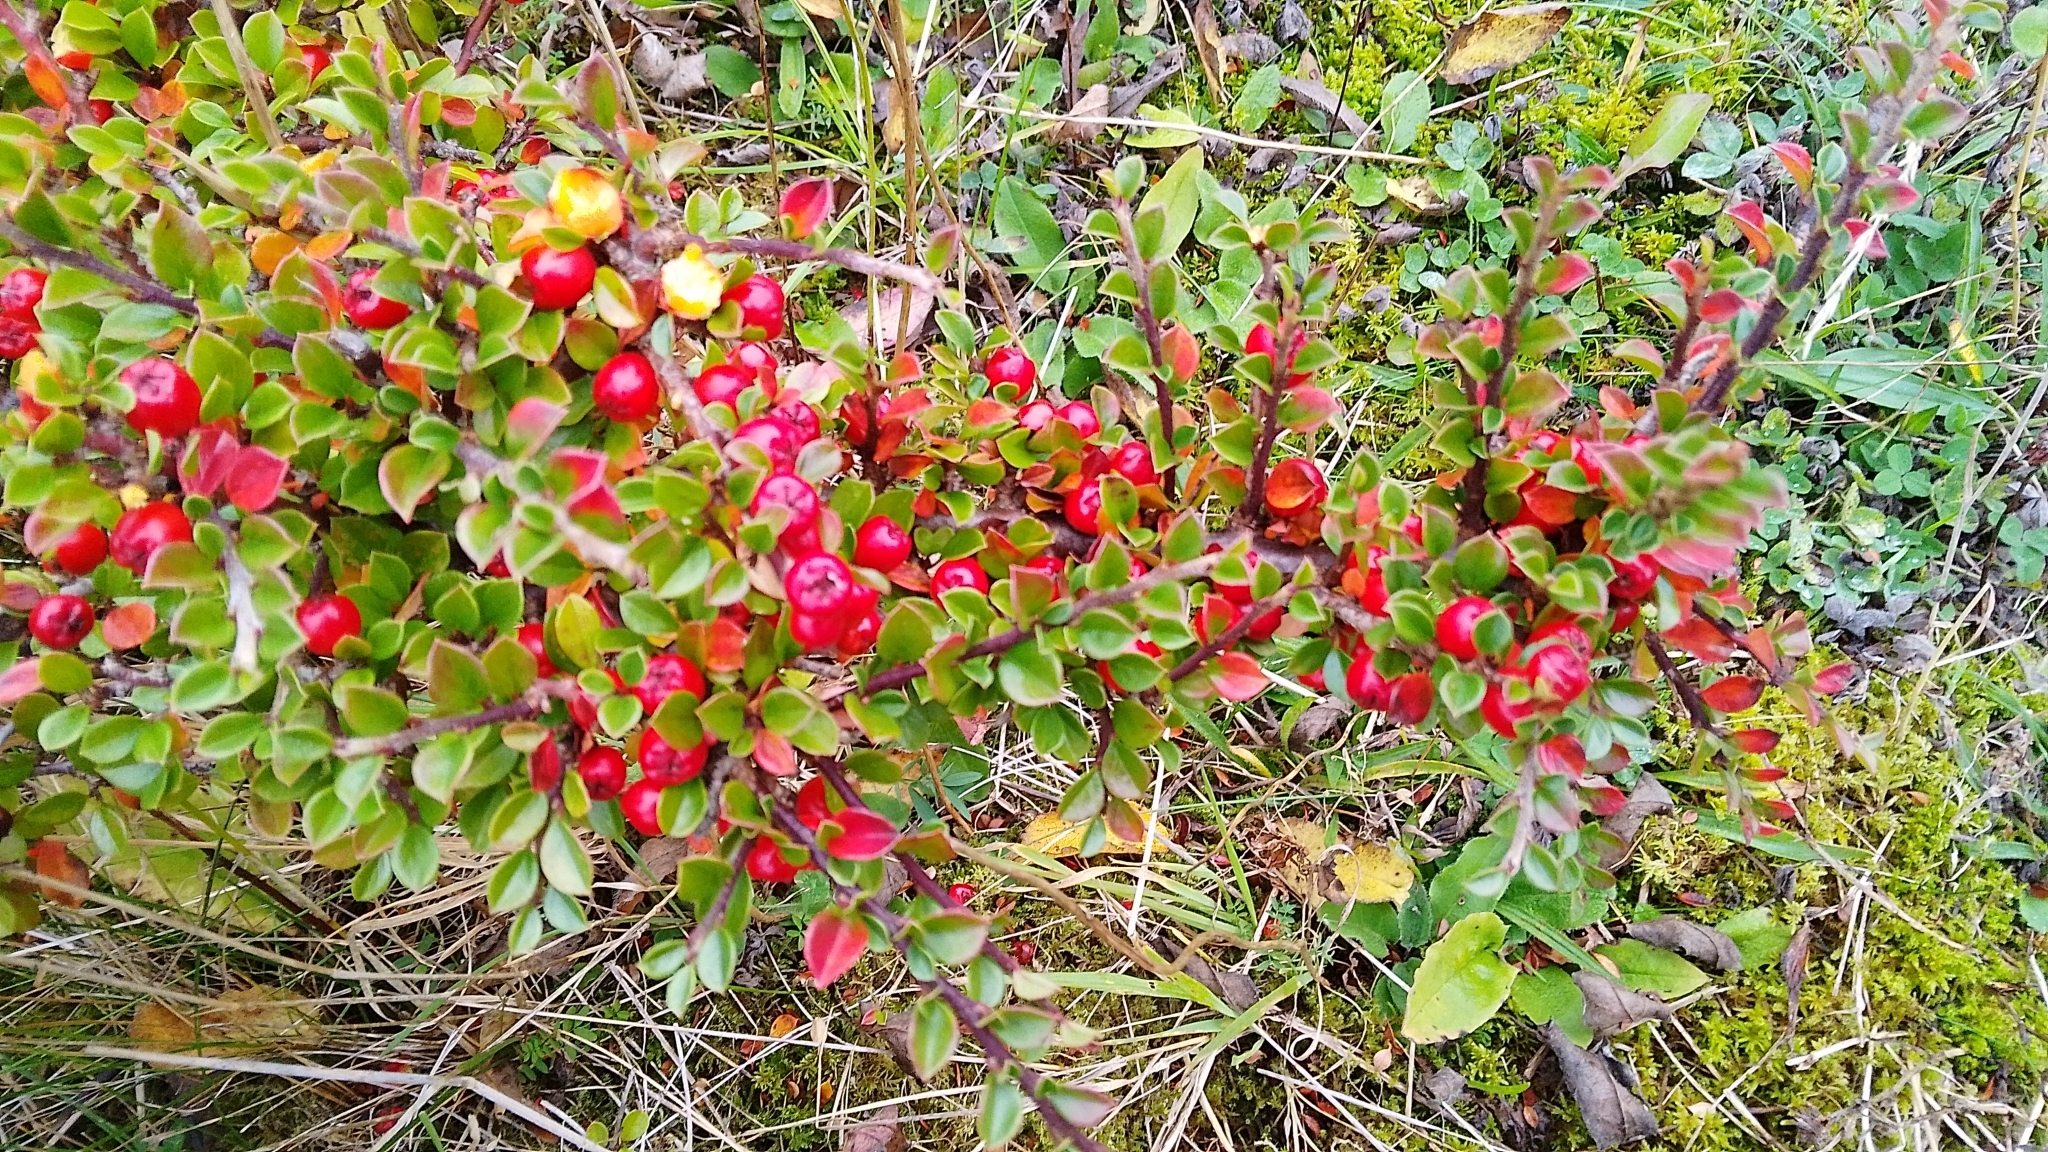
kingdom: Plantae
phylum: Tracheophyta
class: Magnoliopsida
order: Rosales
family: Rosaceae
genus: Cotoneaster
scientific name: Cotoneaster horizontalis
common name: Wall cotoneaster
